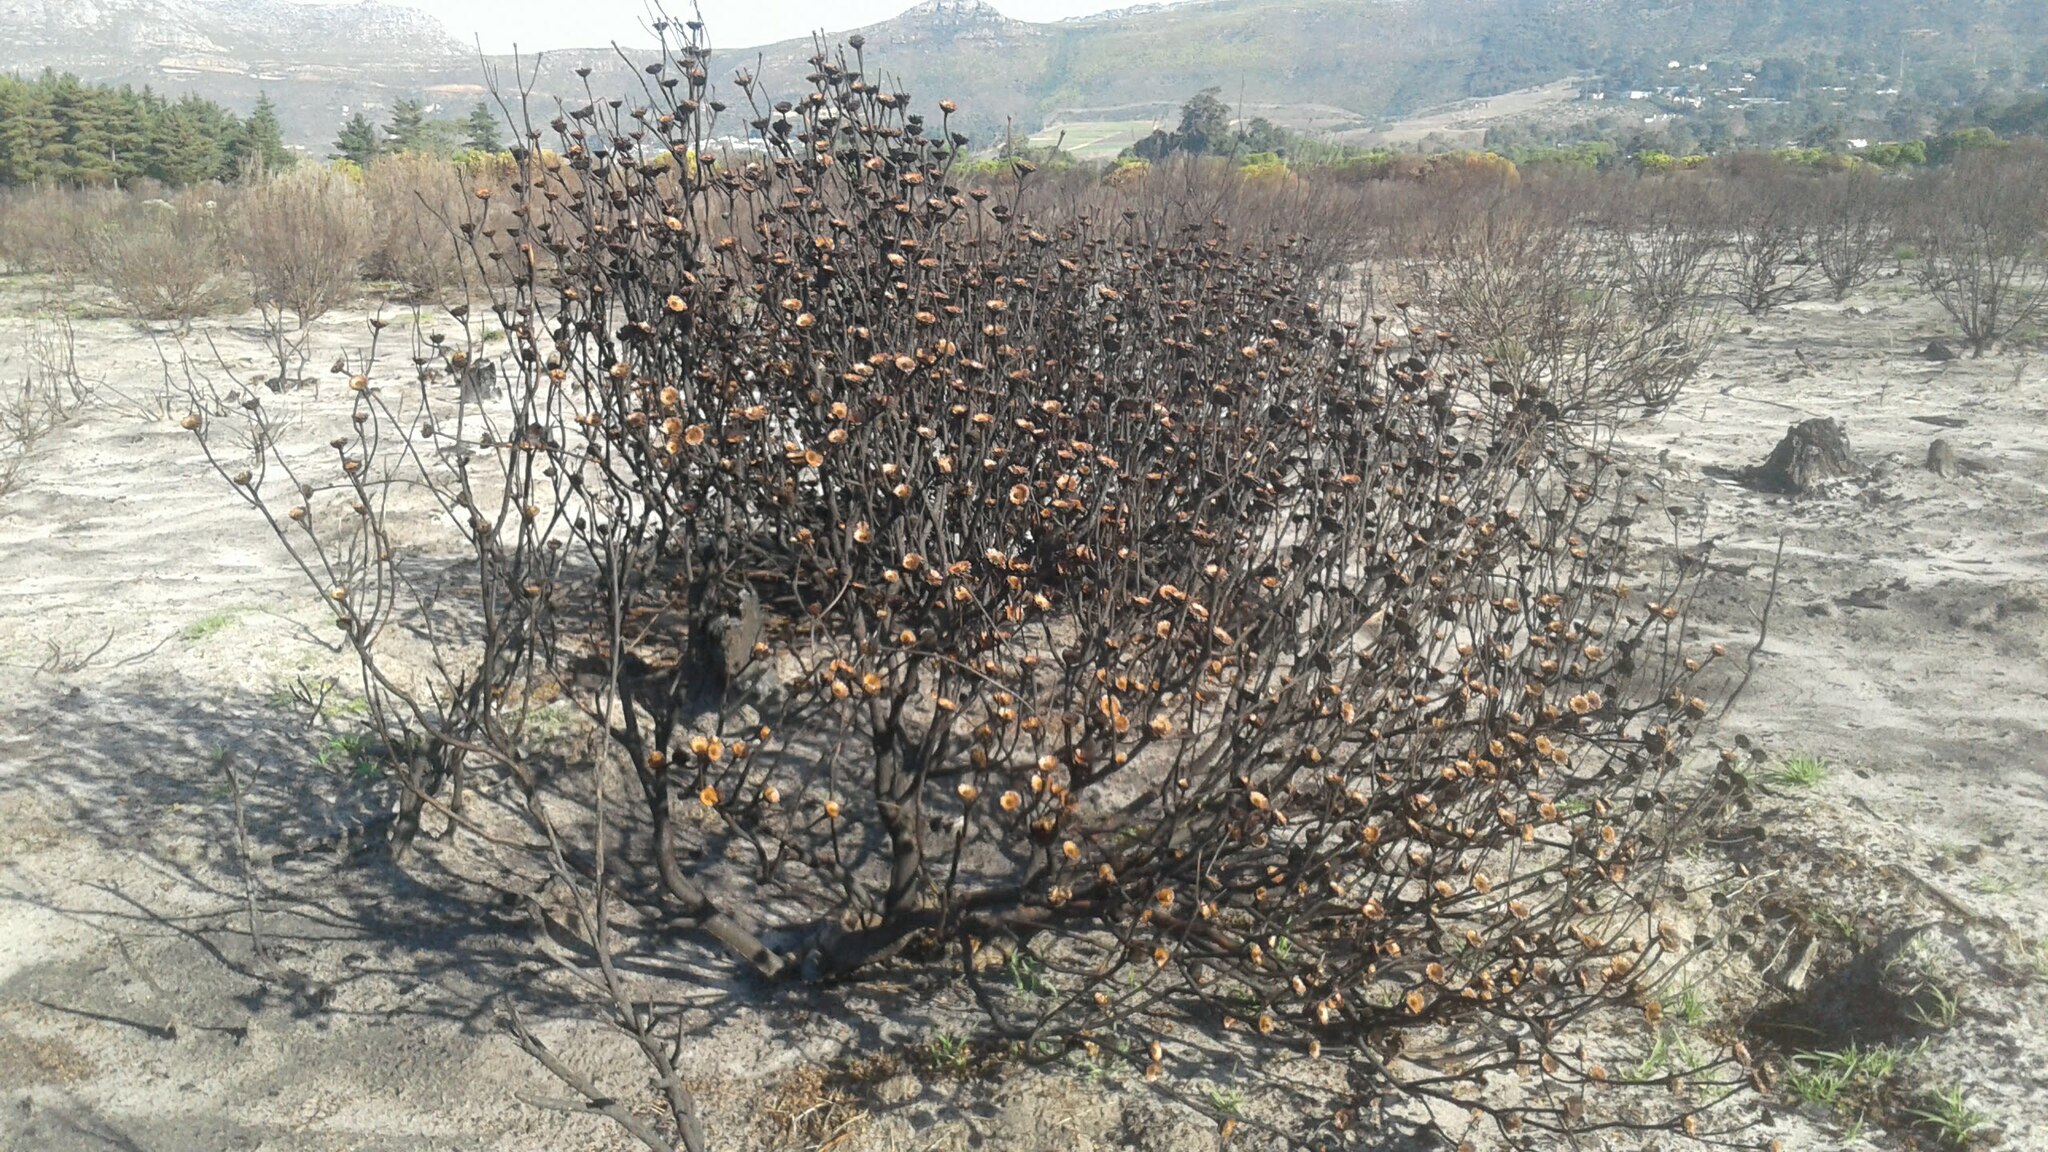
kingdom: Plantae
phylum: Tracheophyta
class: Magnoliopsida
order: Proteales
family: Proteaceae
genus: Protea
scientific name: Protea scolymocephala
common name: Thistle sugarbush
